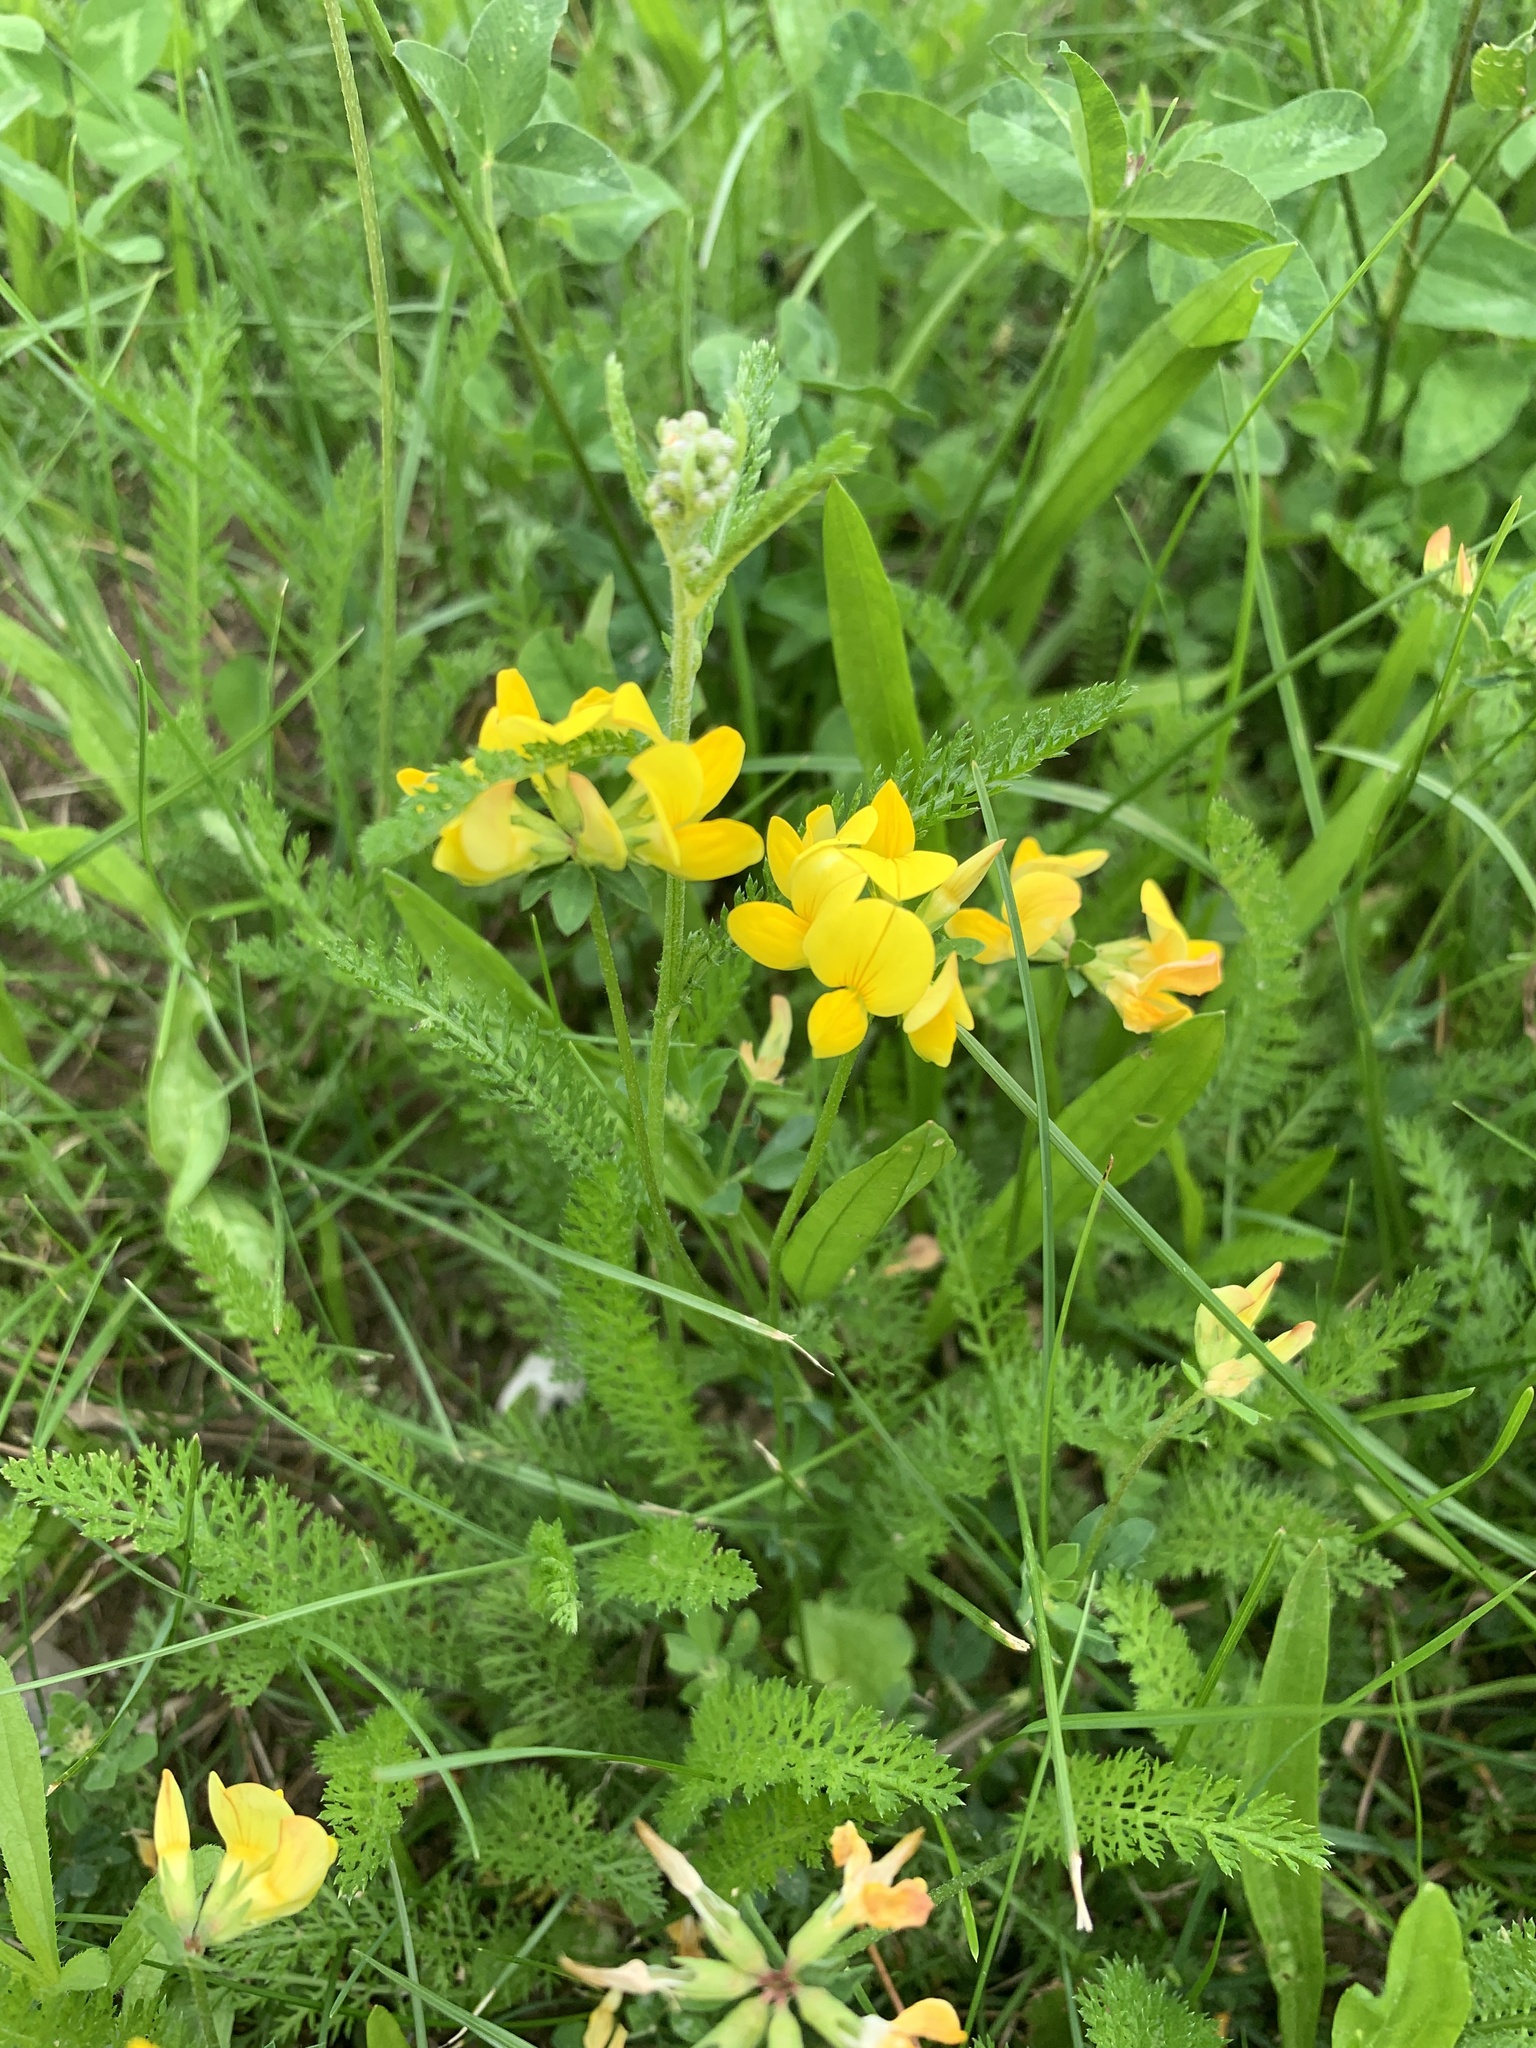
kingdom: Plantae
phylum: Tracheophyta
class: Magnoliopsida
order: Fabales
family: Fabaceae
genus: Lotus
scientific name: Lotus corniculatus
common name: Common bird's-foot-trefoil
